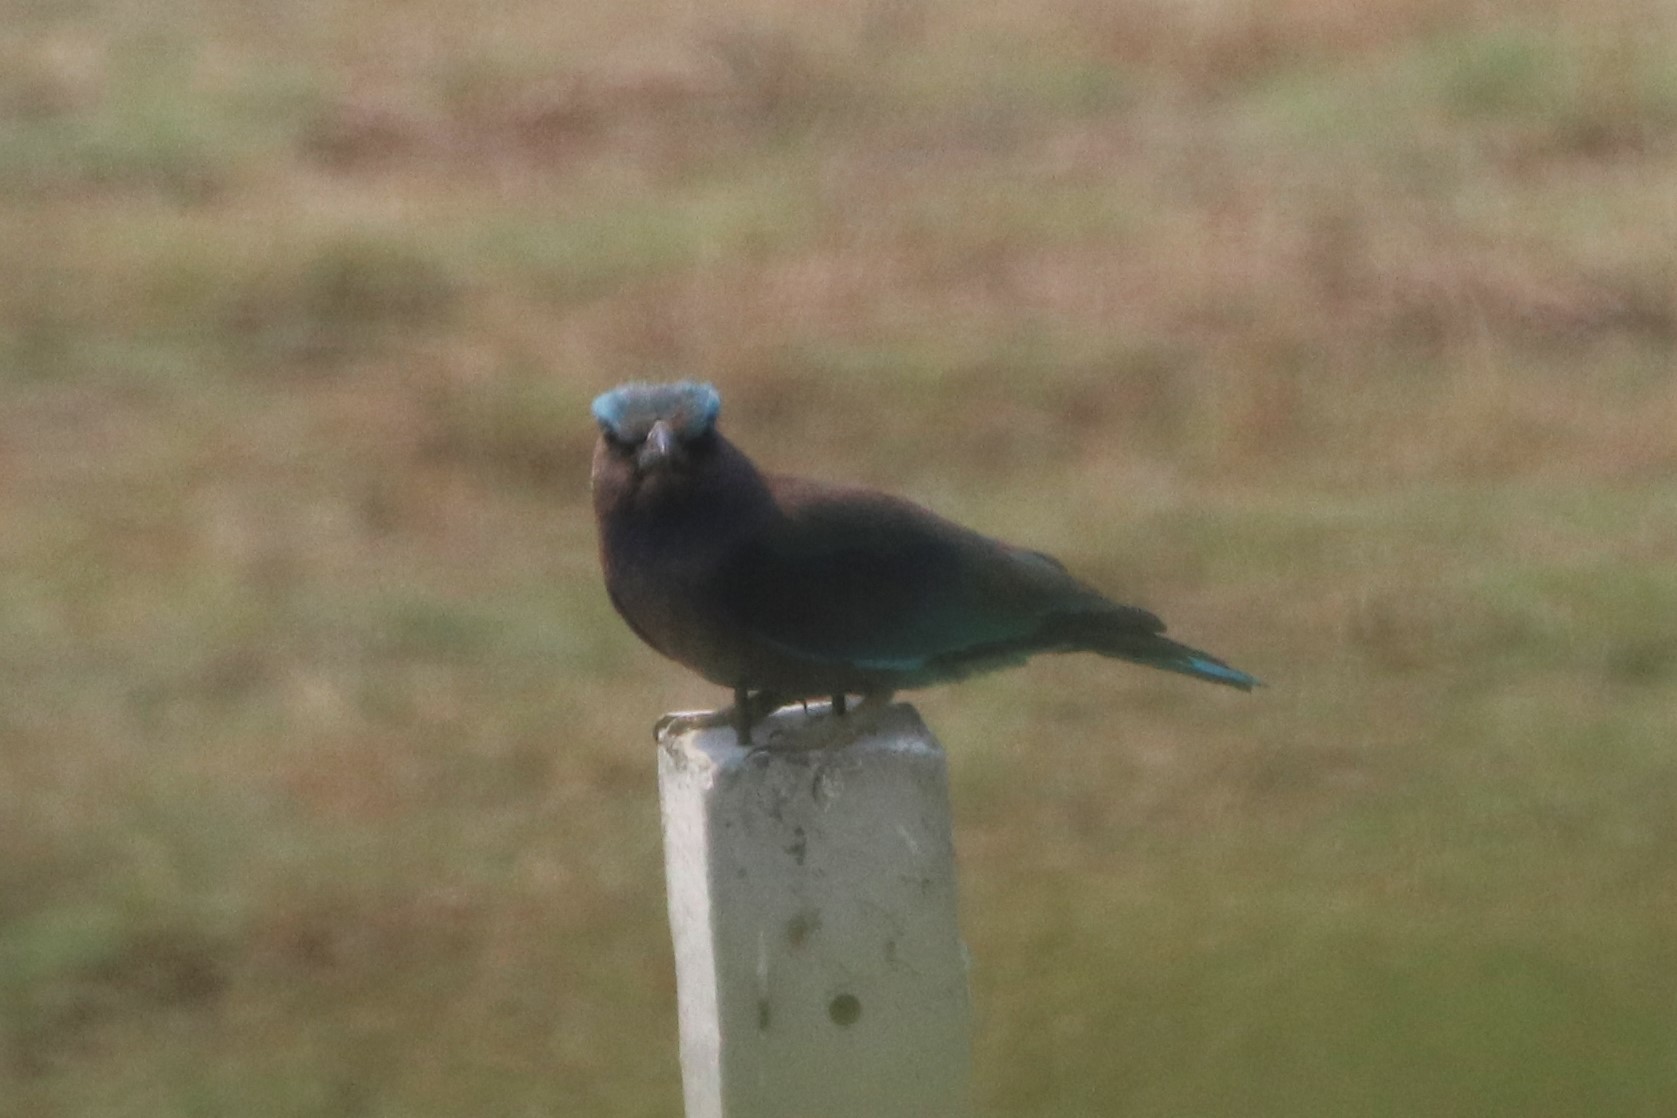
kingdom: Animalia
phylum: Chordata
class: Aves
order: Coraciiformes
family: Coraciidae
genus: Coracias
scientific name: Coracias affinis
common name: Indochinese roller
